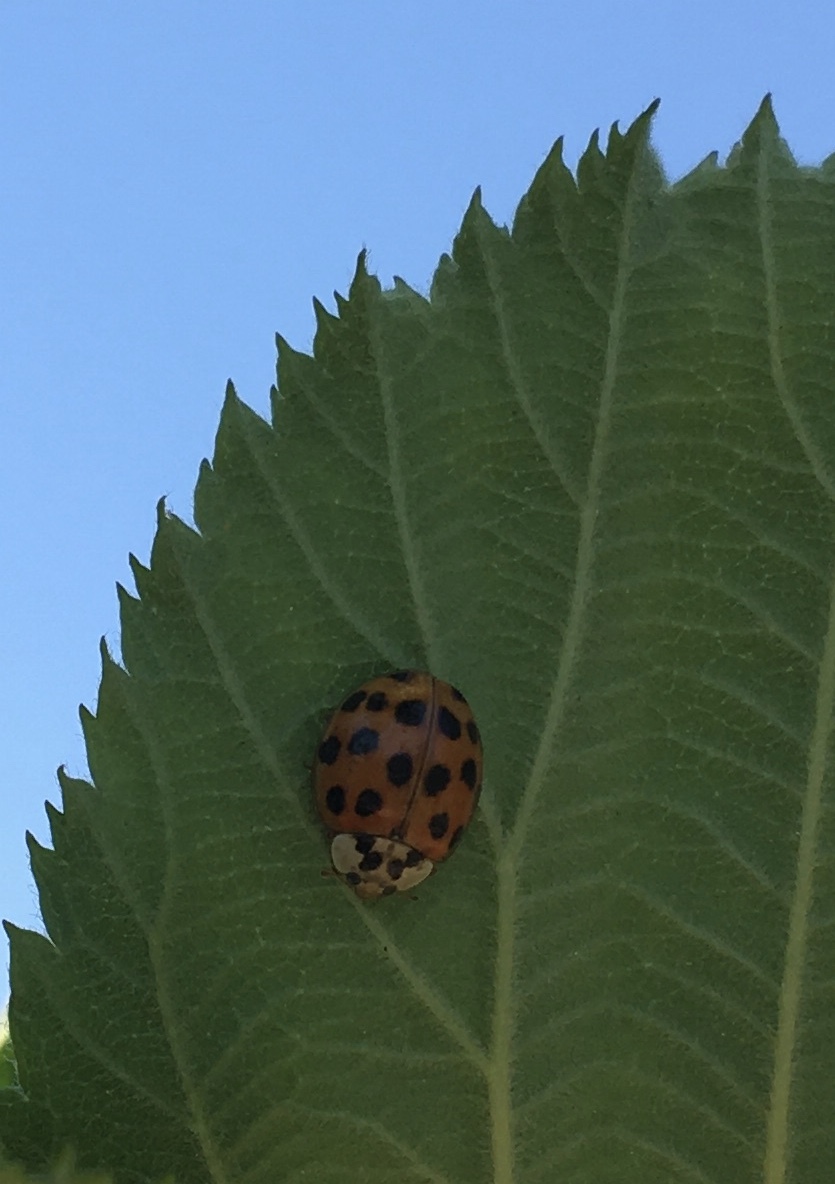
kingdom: Animalia
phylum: Arthropoda
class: Insecta
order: Coleoptera
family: Coccinellidae
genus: Harmonia
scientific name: Harmonia axyridis
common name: Harlequin ladybird
